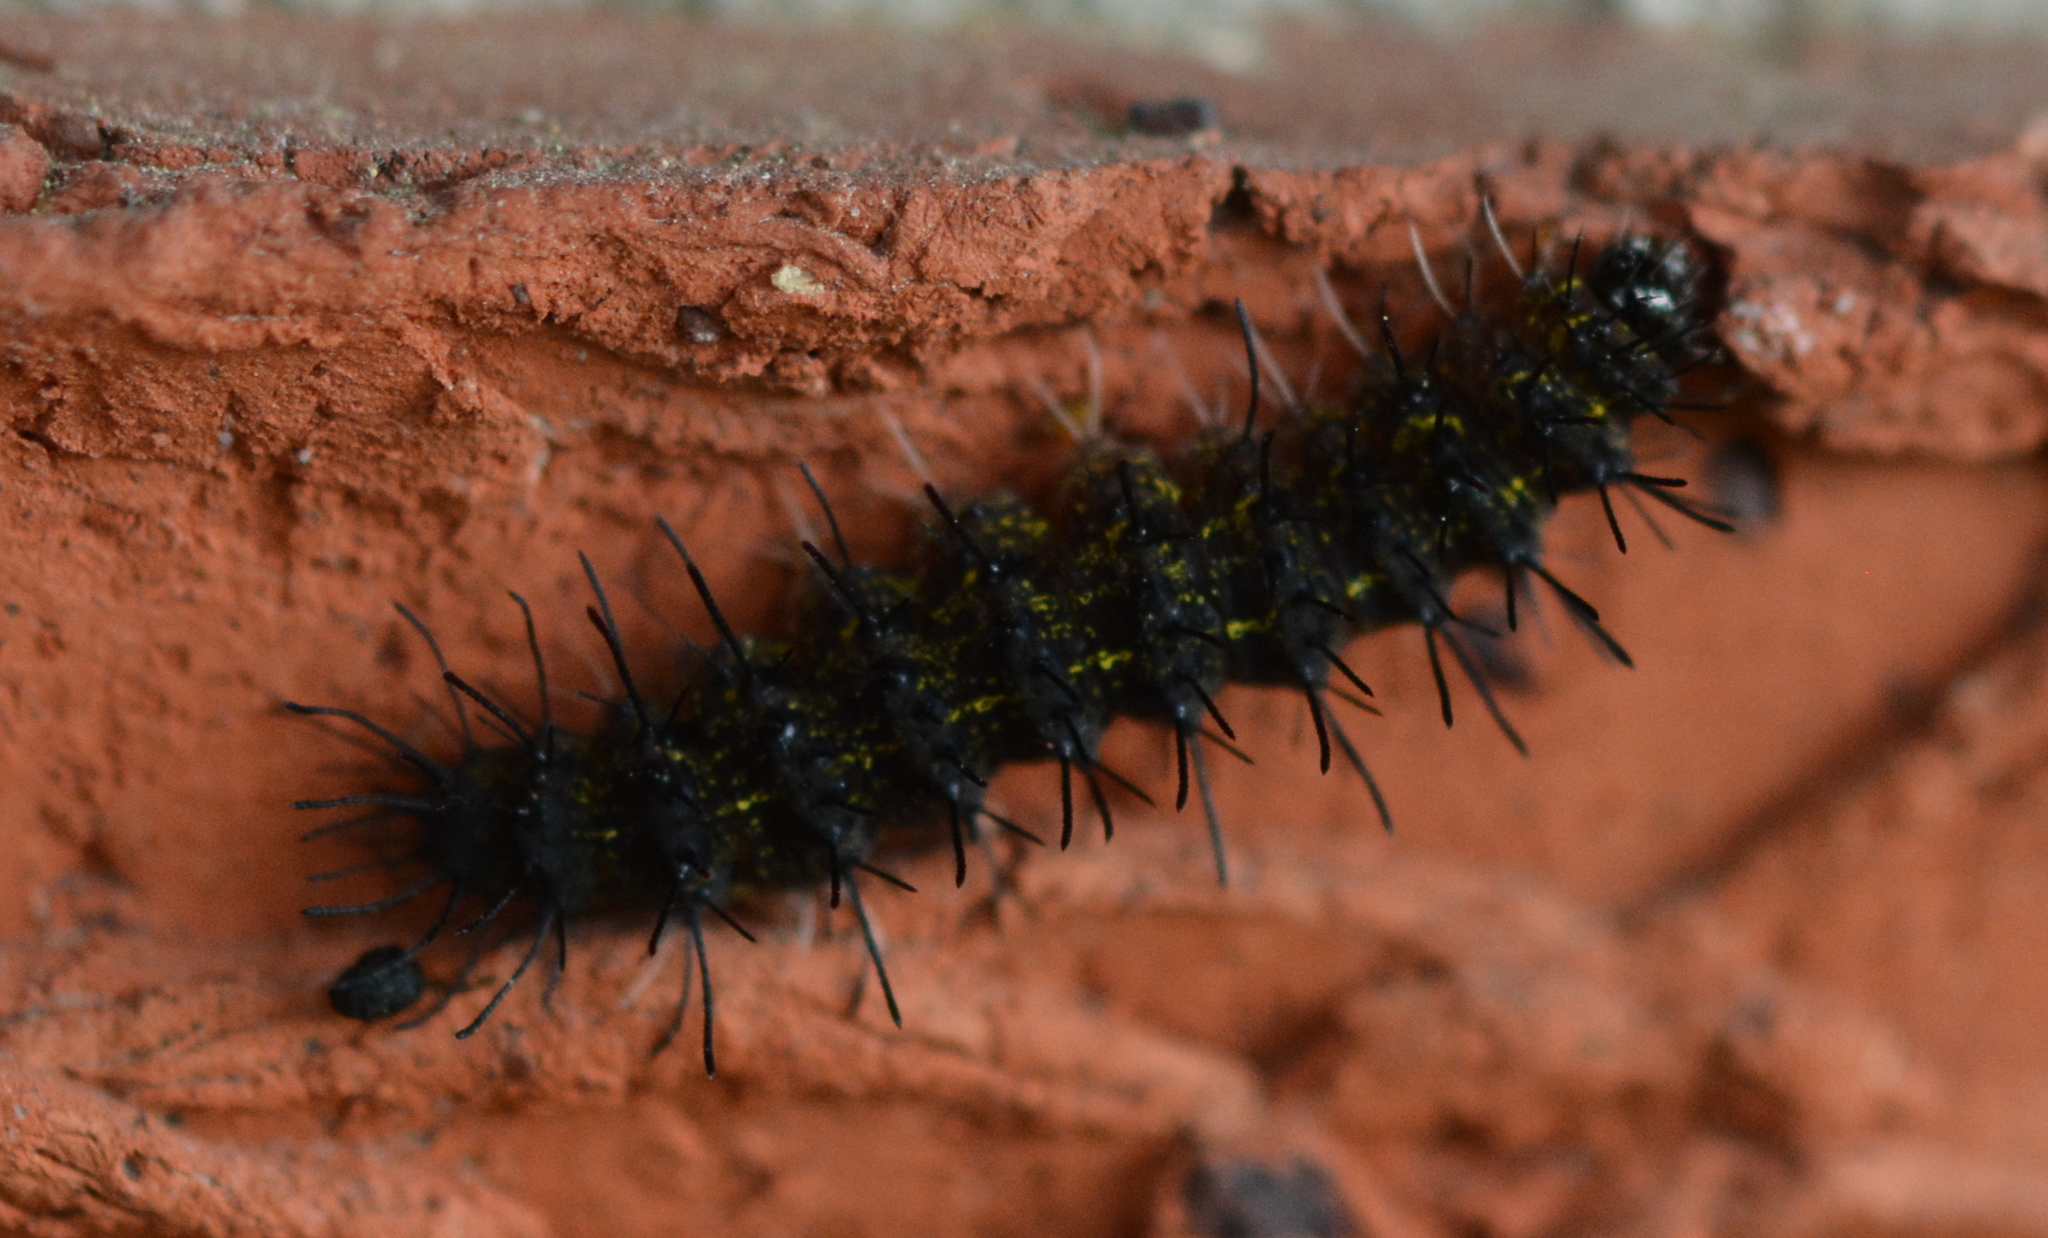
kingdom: Animalia
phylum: Arthropoda
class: Insecta
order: Lepidoptera
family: Erebidae
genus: Hypoprepia
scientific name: Hypoprepia miniata
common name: Scarlet-winged lichen moth
